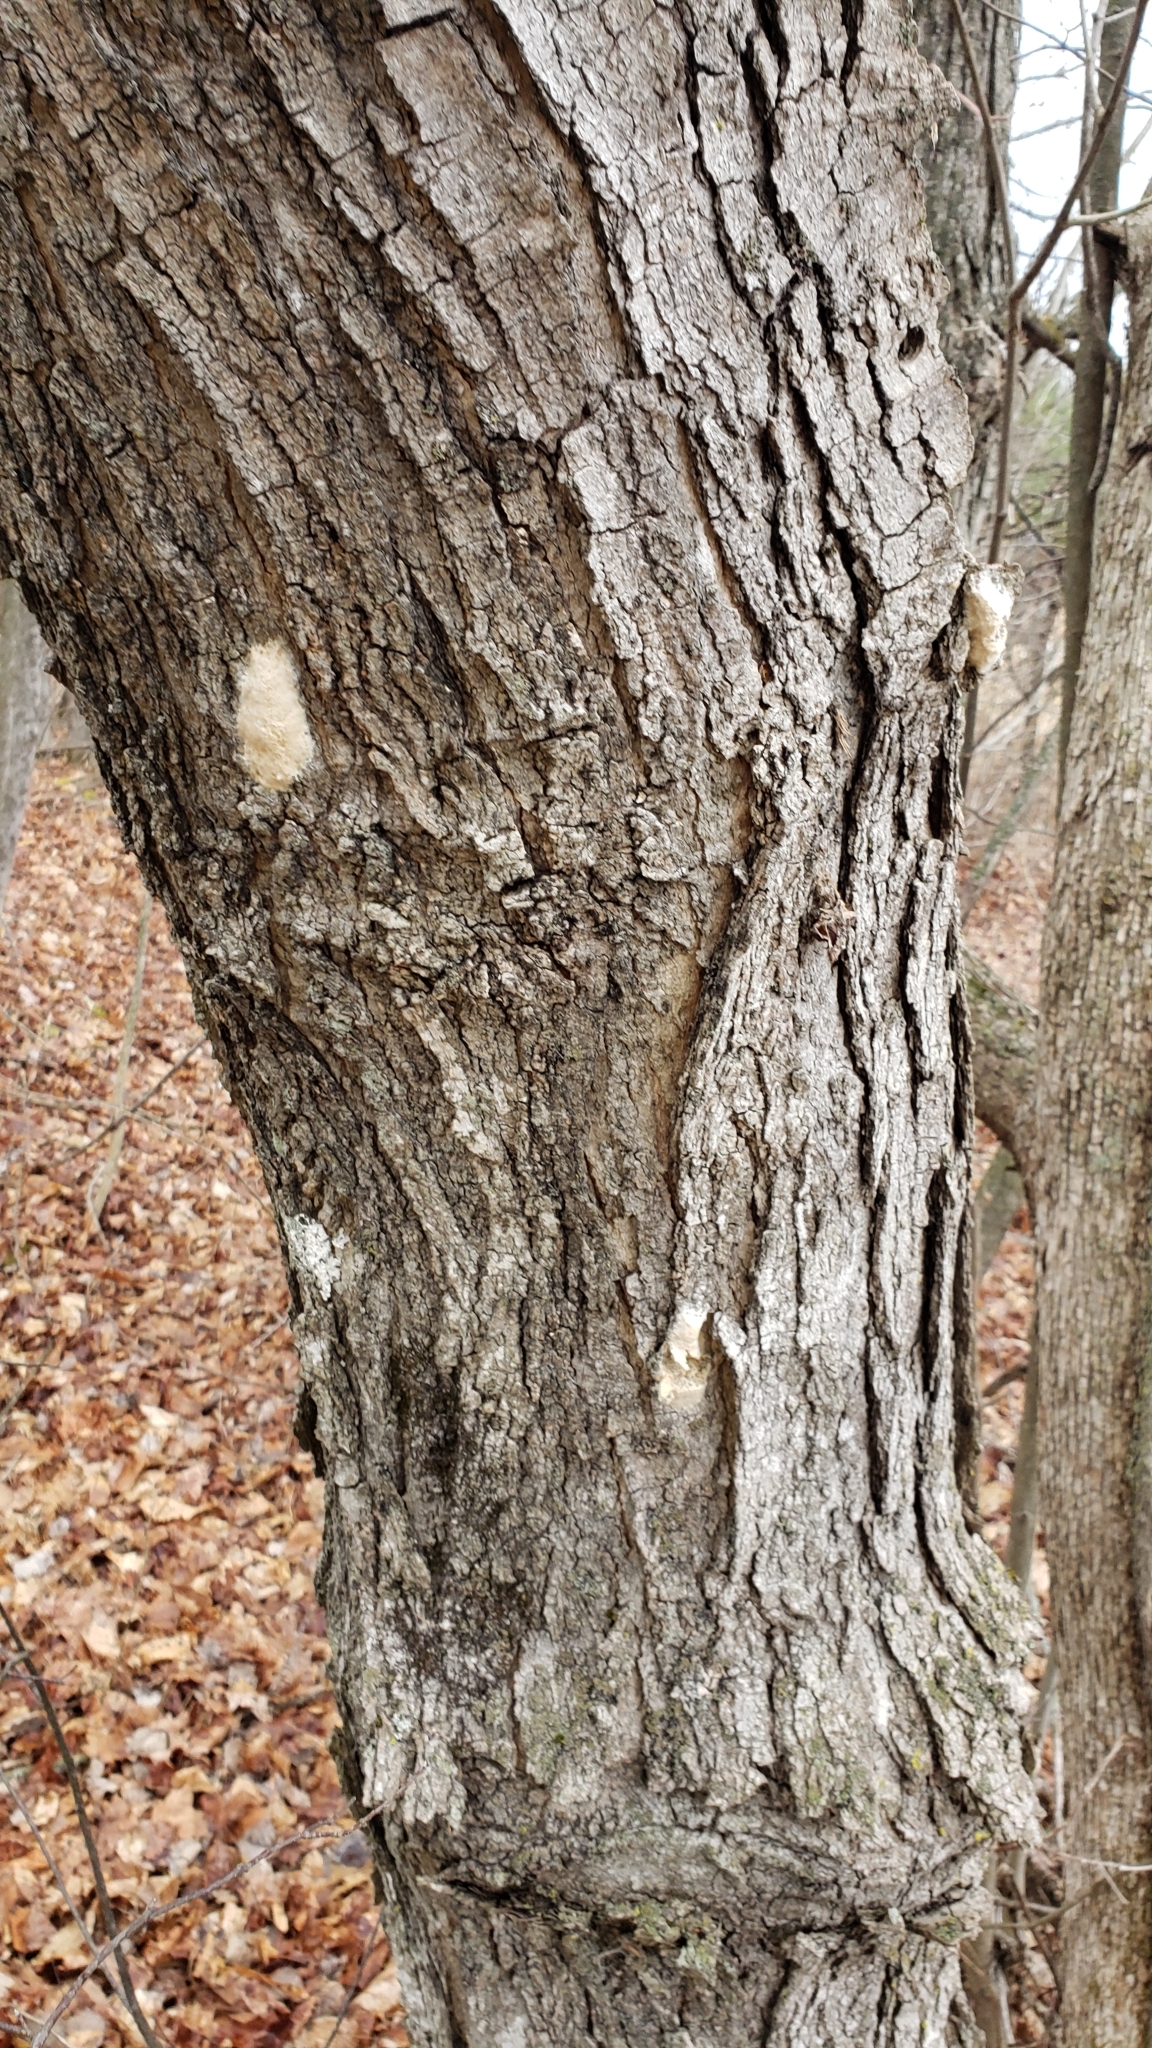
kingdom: Animalia
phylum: Arthropoda
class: Insecta
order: Lepidoptera
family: Erebidae
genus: Lymantria
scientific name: Lymantria dispar
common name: Gypsy moth
